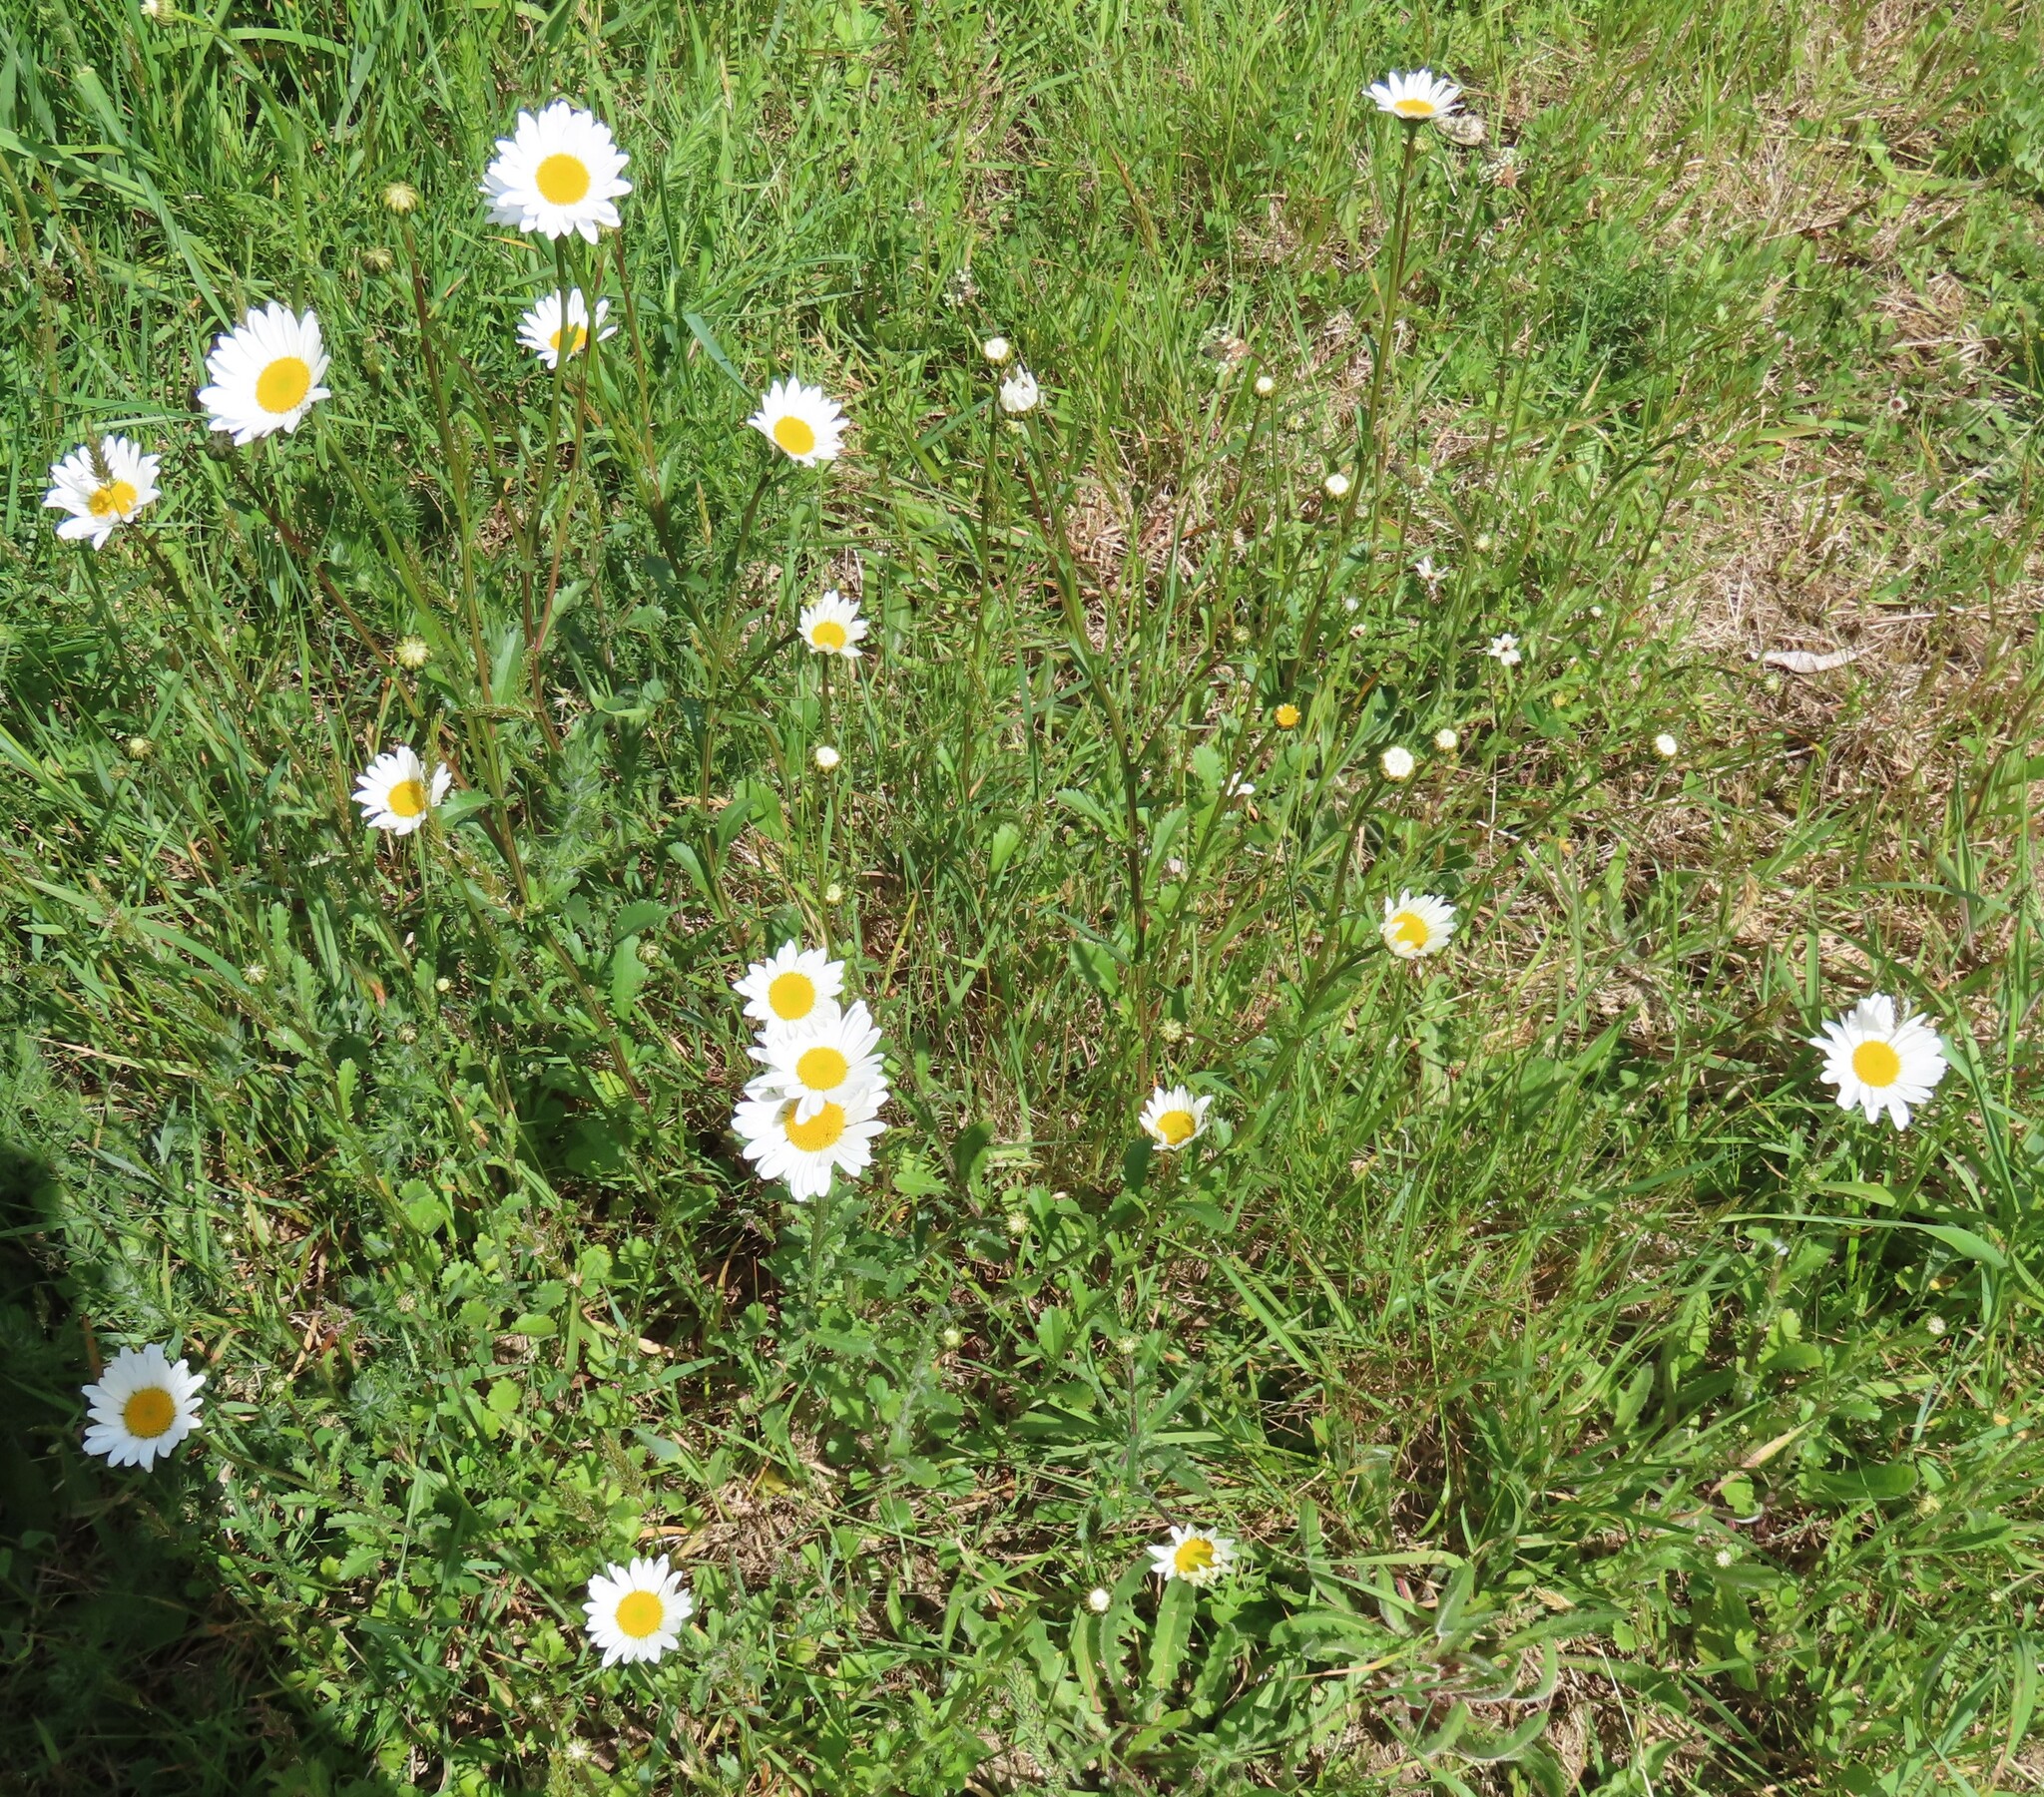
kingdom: Plantae
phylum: Tracheophyta
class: Magnoliopsida
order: Asterales
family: Asteraceae
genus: Leucanthemum
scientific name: Leucanthemum vulgare
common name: Oxeye daisy
